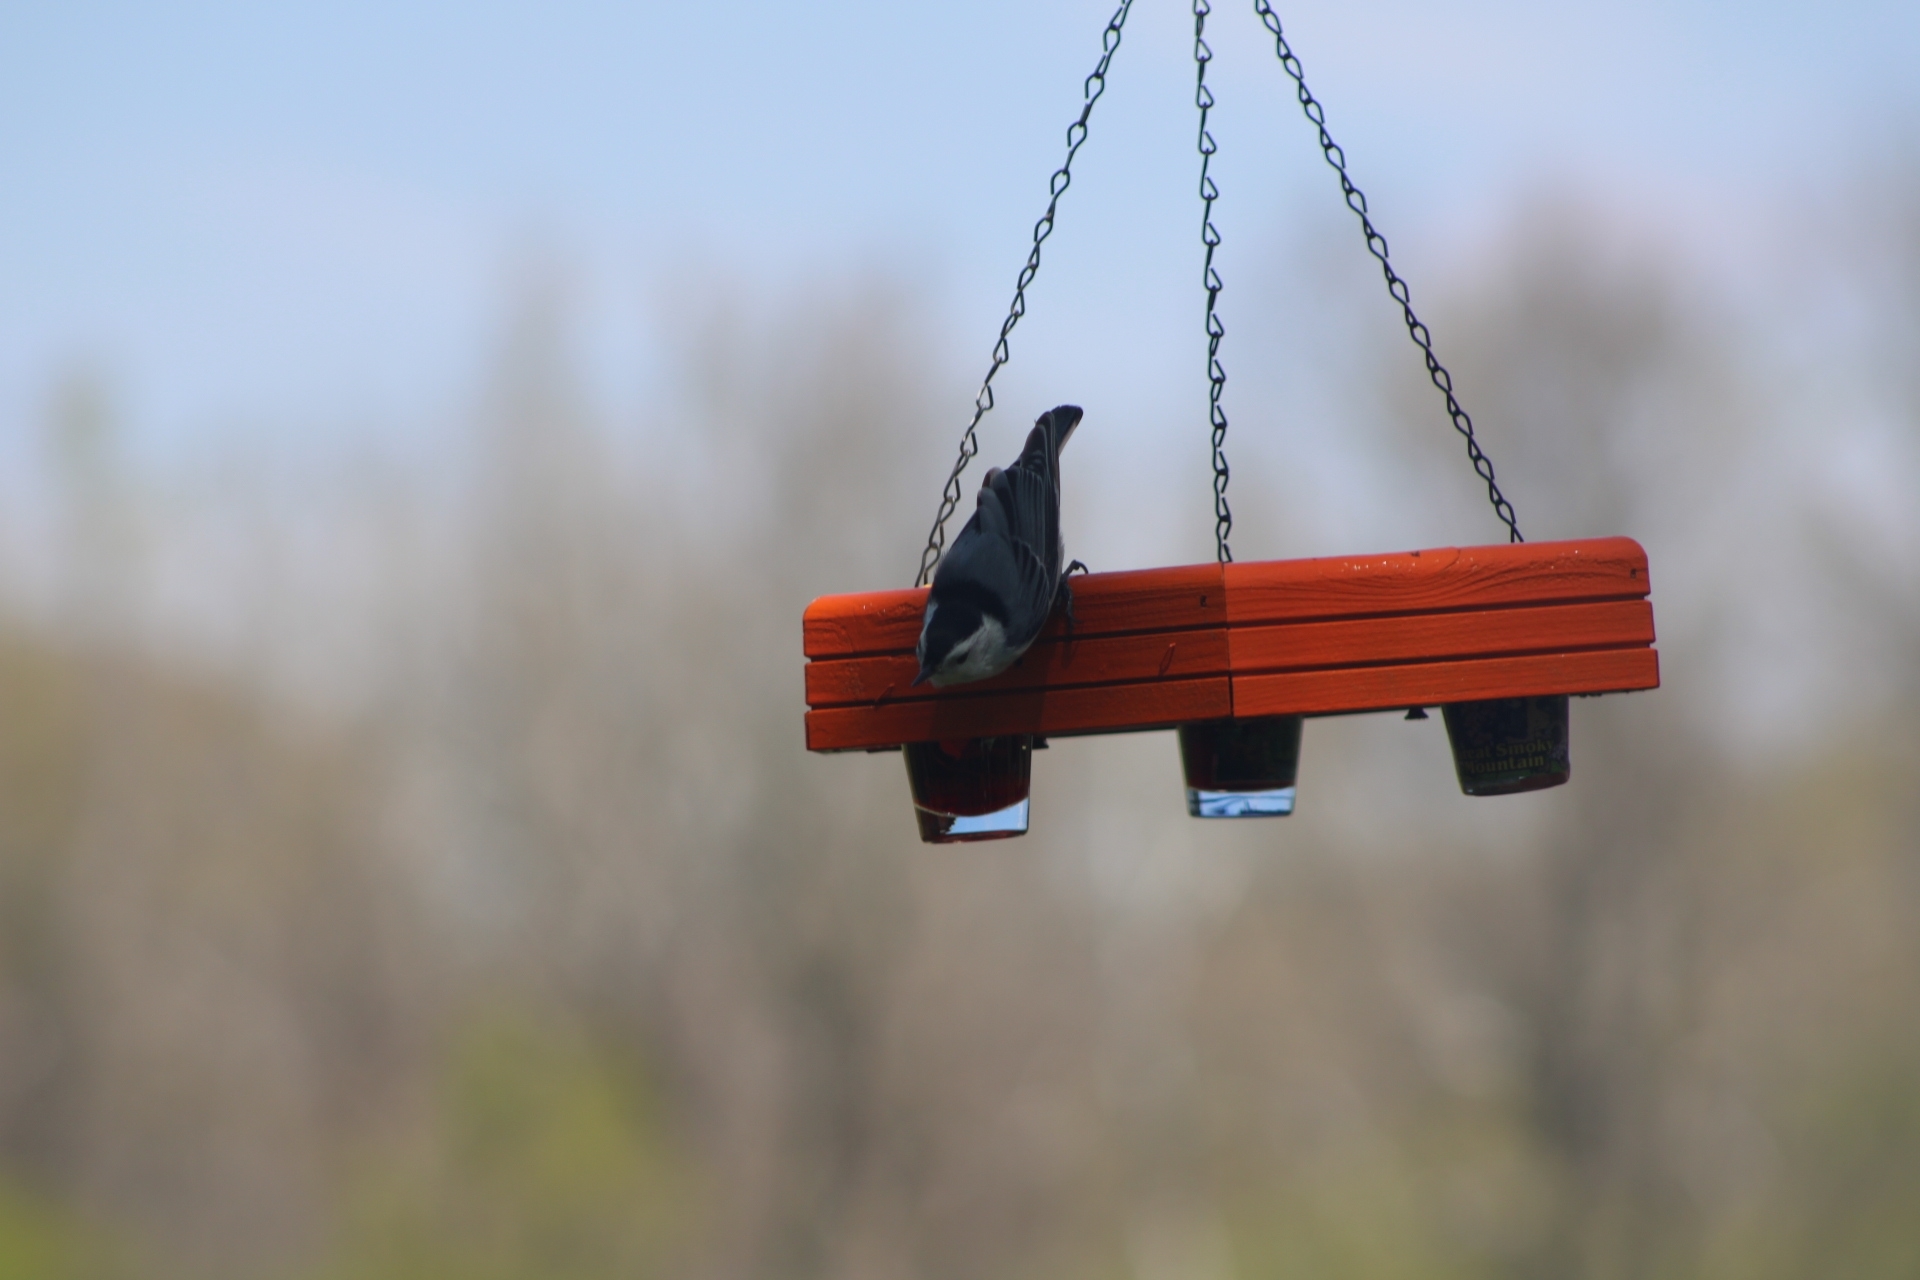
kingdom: Animalia
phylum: Chordata
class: Aves
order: Passeriformes
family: Sittidae
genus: Sitta
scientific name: Sitta carolinensis
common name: White-breasted nuthatch
